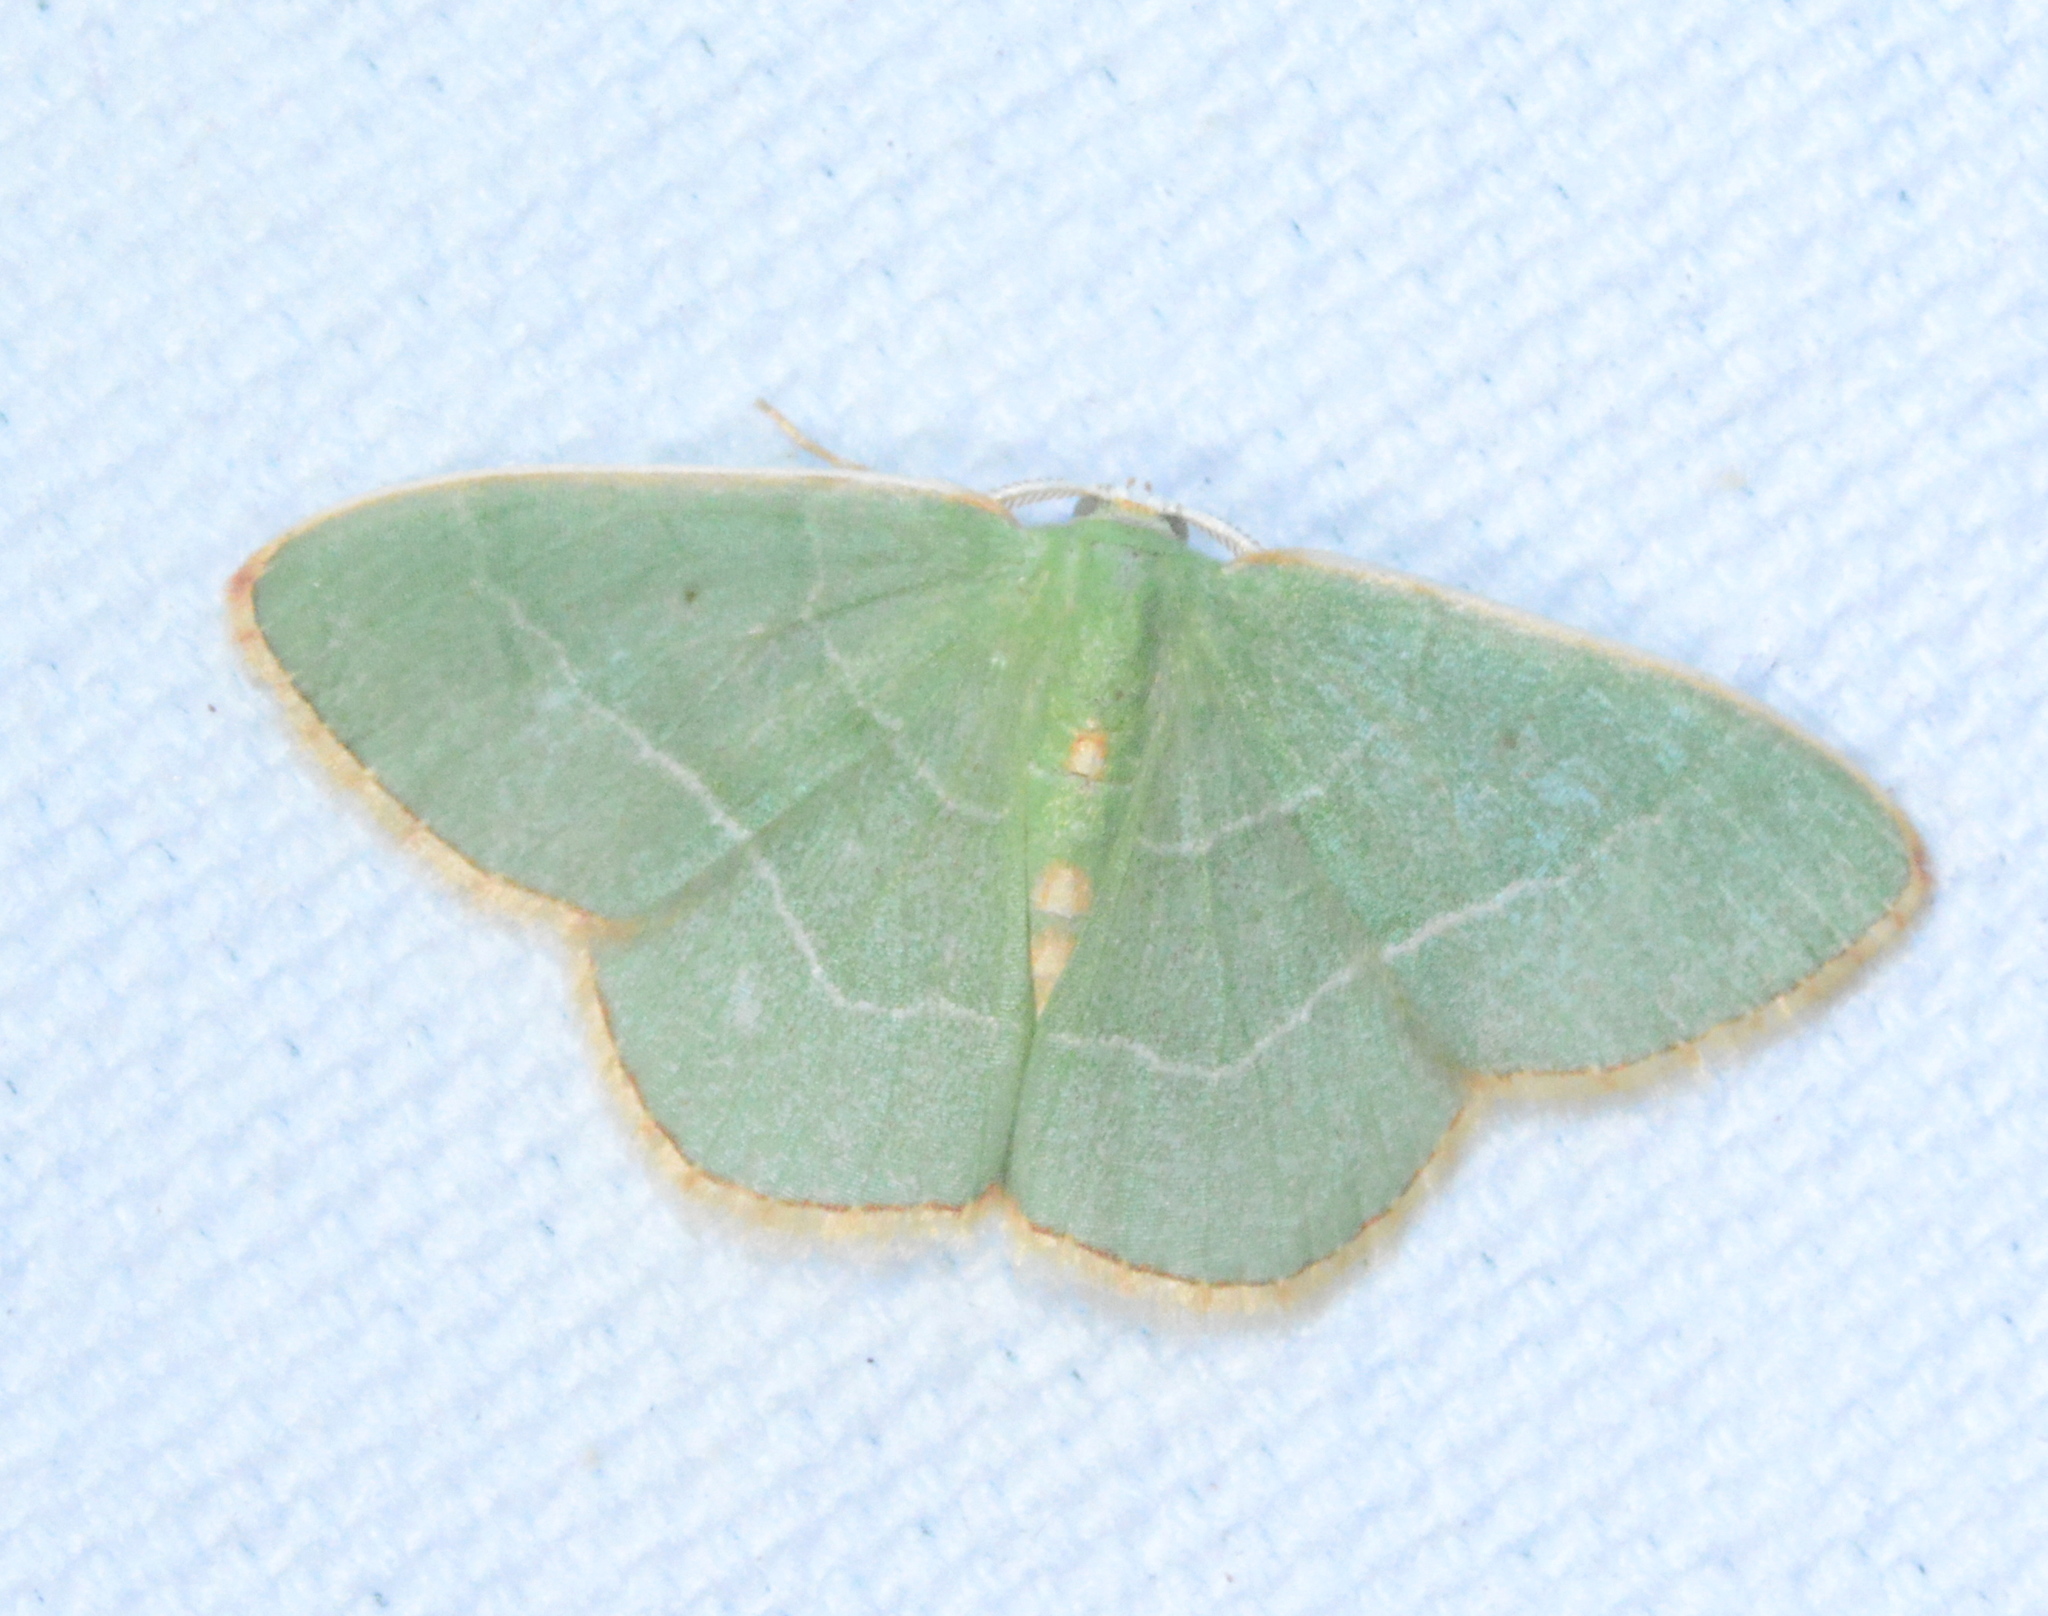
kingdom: Animalia
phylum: Arthropoda
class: Insecta
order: Lepidoptera
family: Geometridae
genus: Nemoria
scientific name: Nemoria lixaria
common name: Red-bordered emerald
